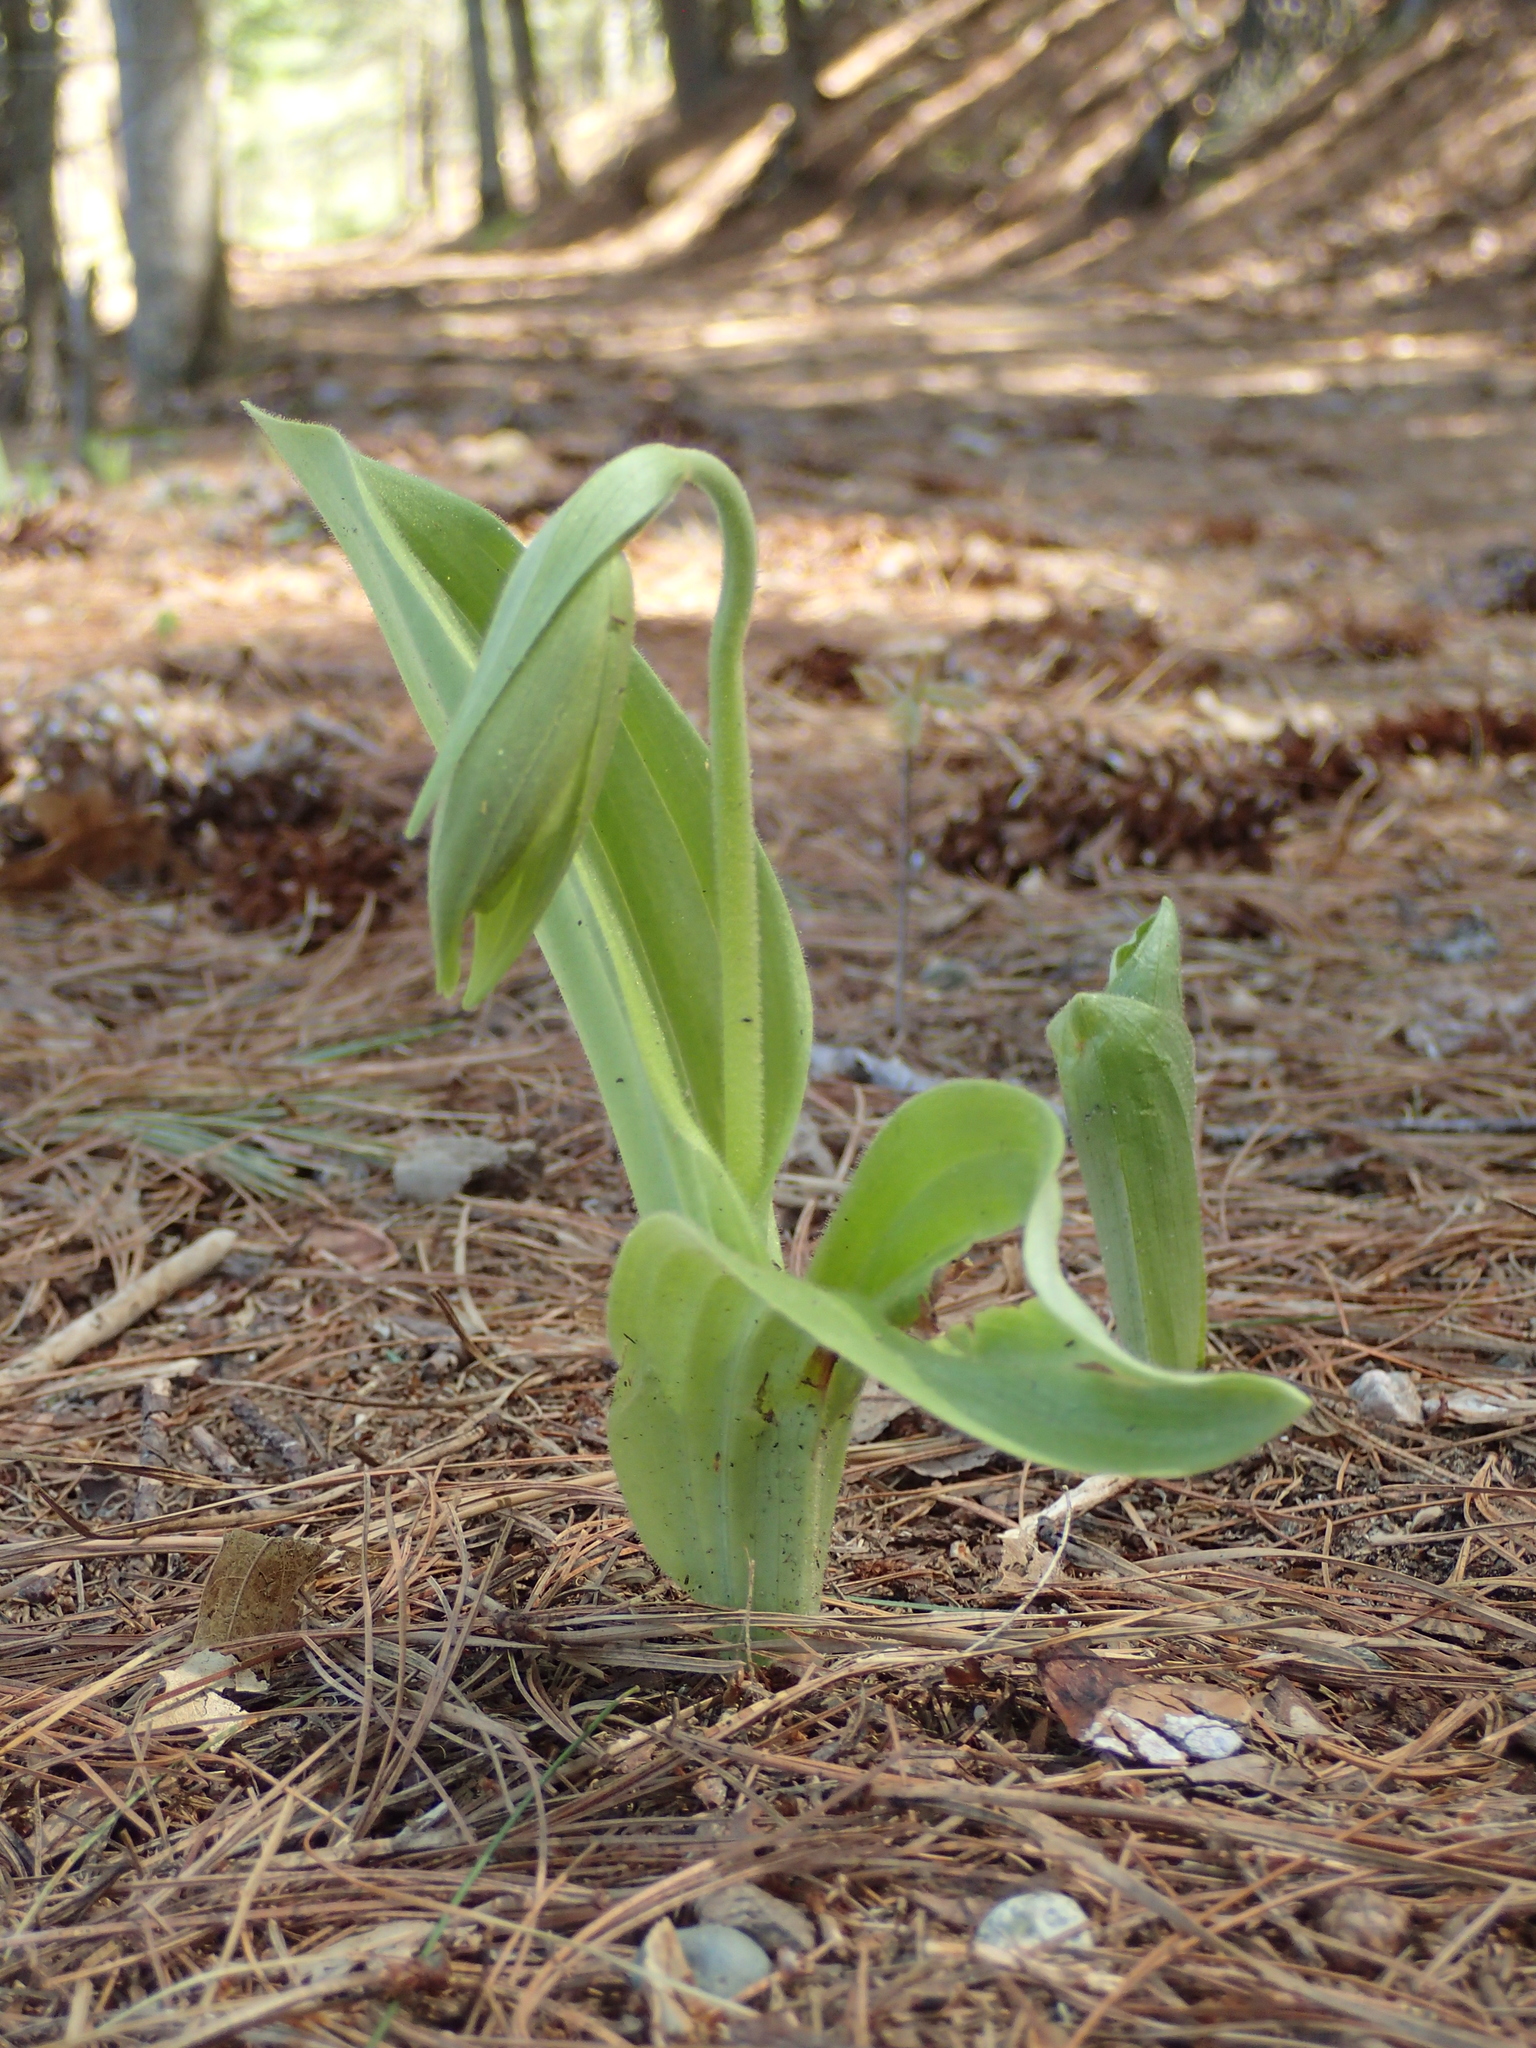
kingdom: Plantae
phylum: Tracheophyta
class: Liliopsida
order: Asparagales
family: Orchidaceae
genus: Cypripedium
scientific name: Cypripedium acaule
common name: Pink lady's-slipper
